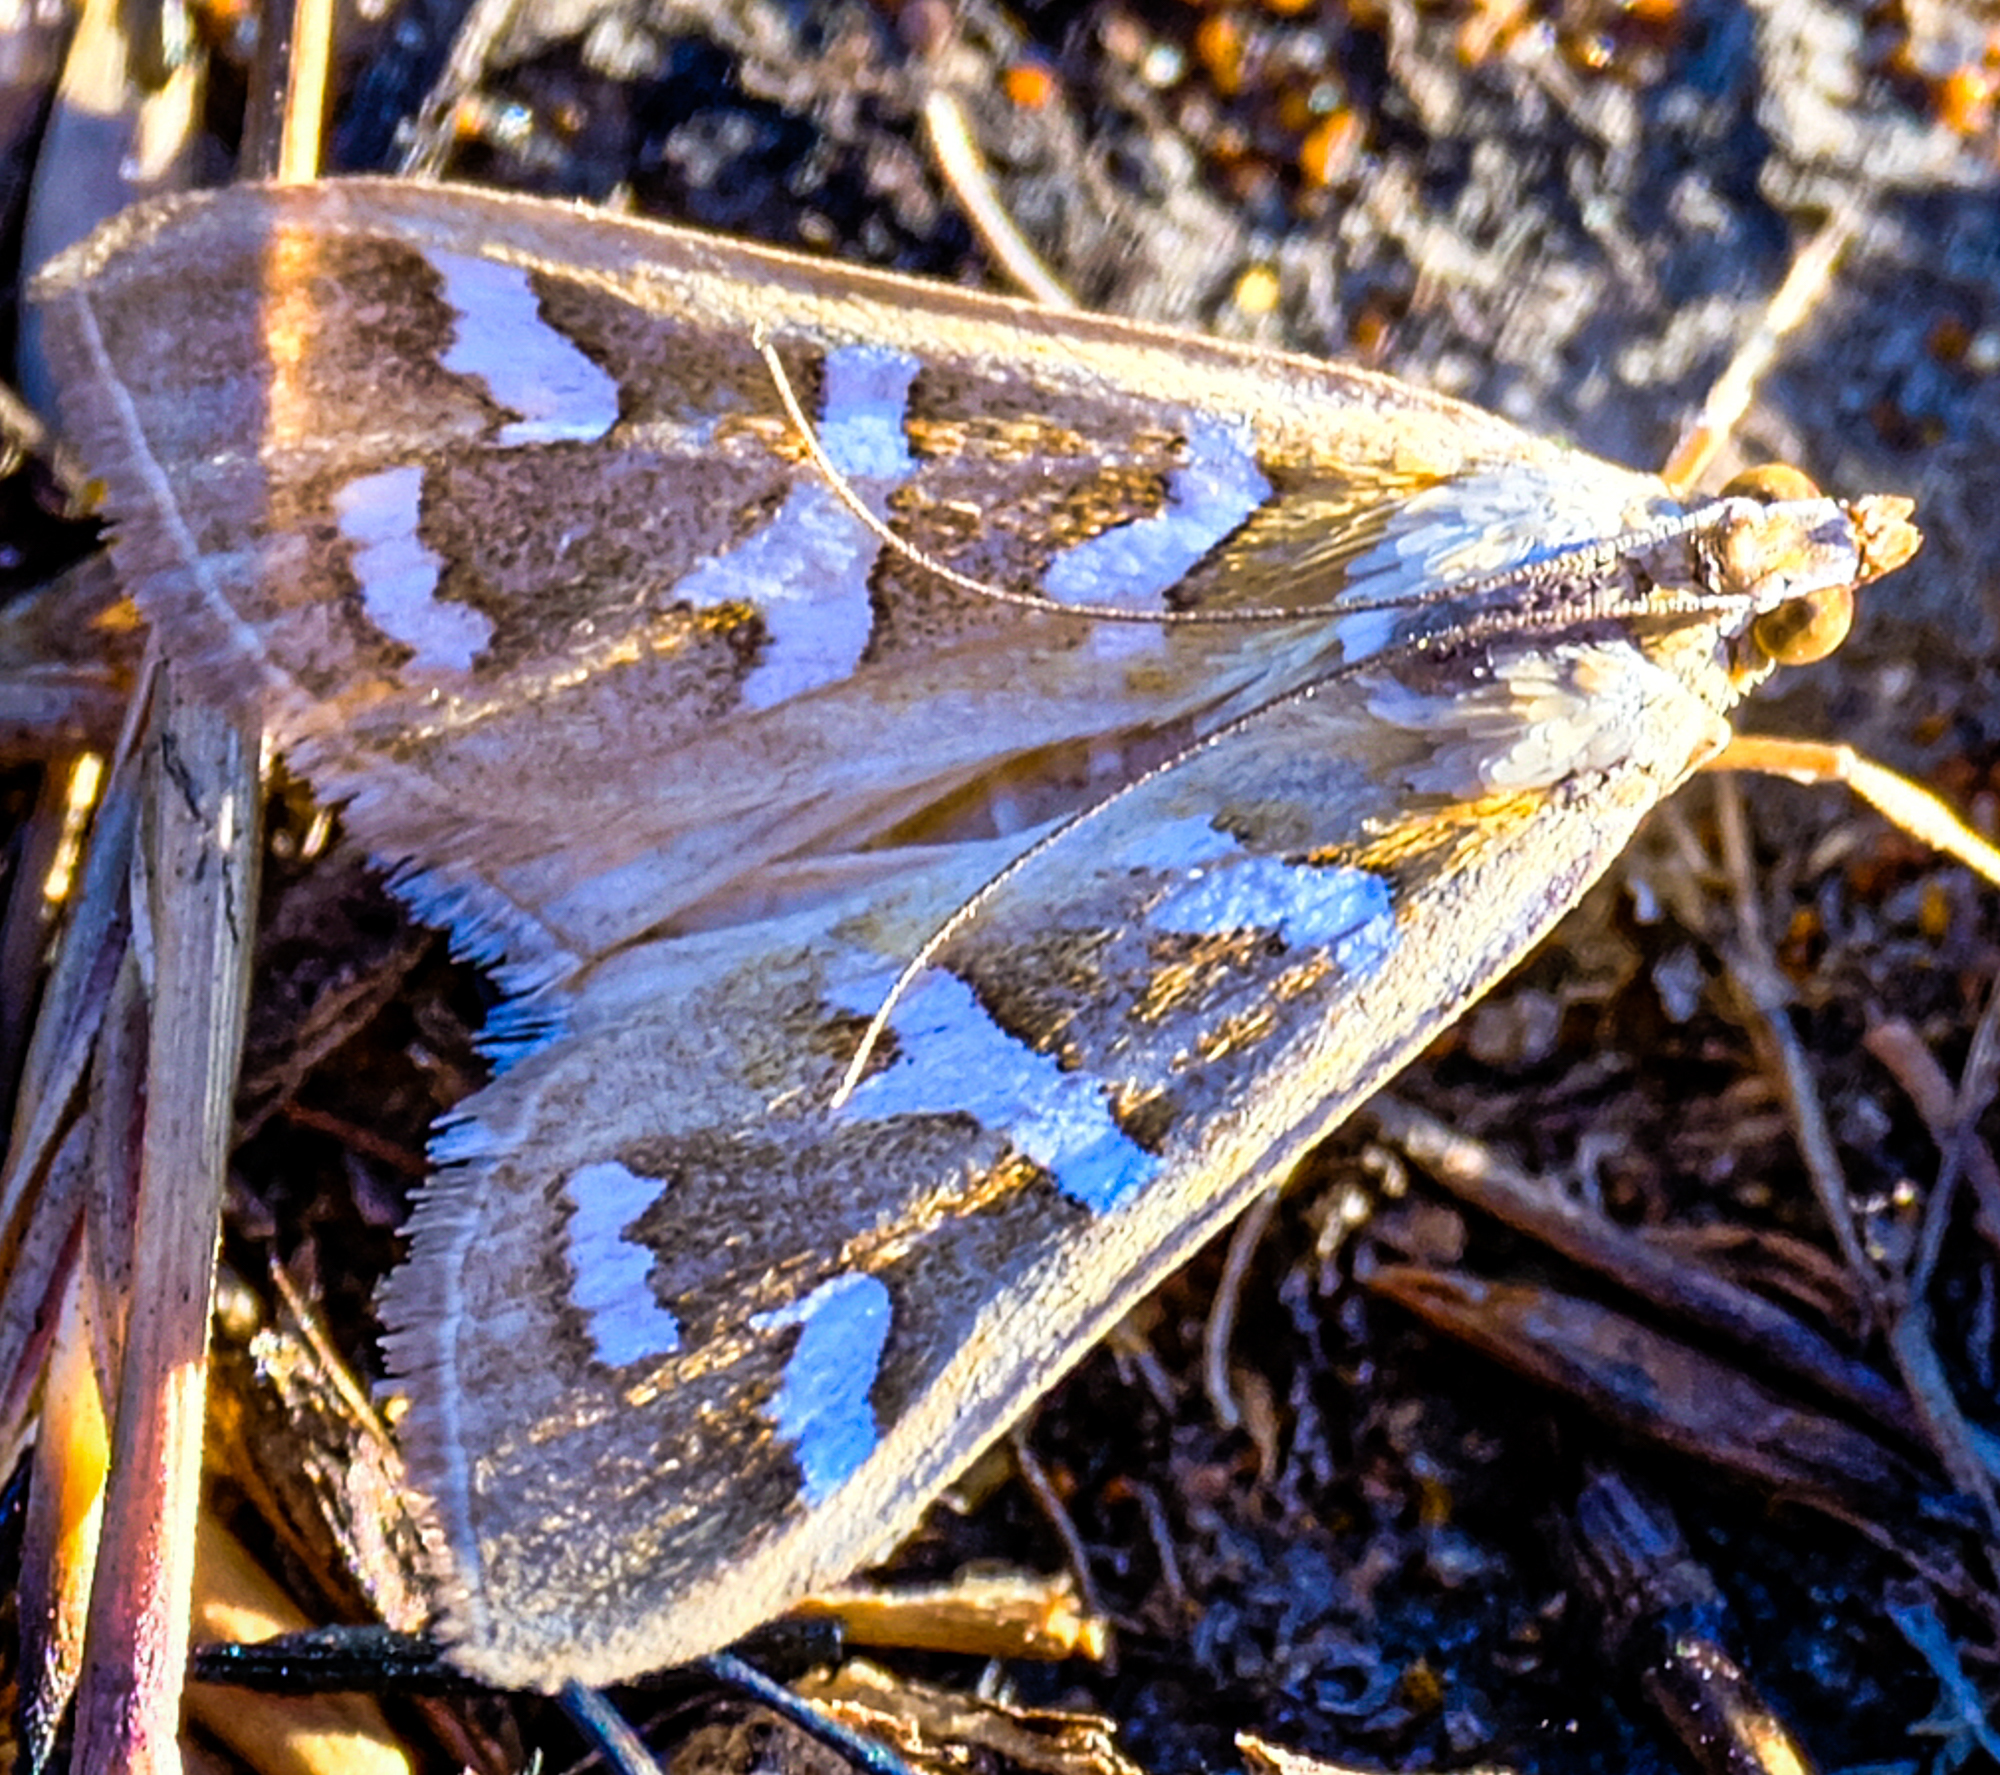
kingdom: Animalia
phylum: Arthropoda
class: Insecta
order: Lepidoptera
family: Crambidae
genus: Diastictis
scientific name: Diastictis fracturalis
